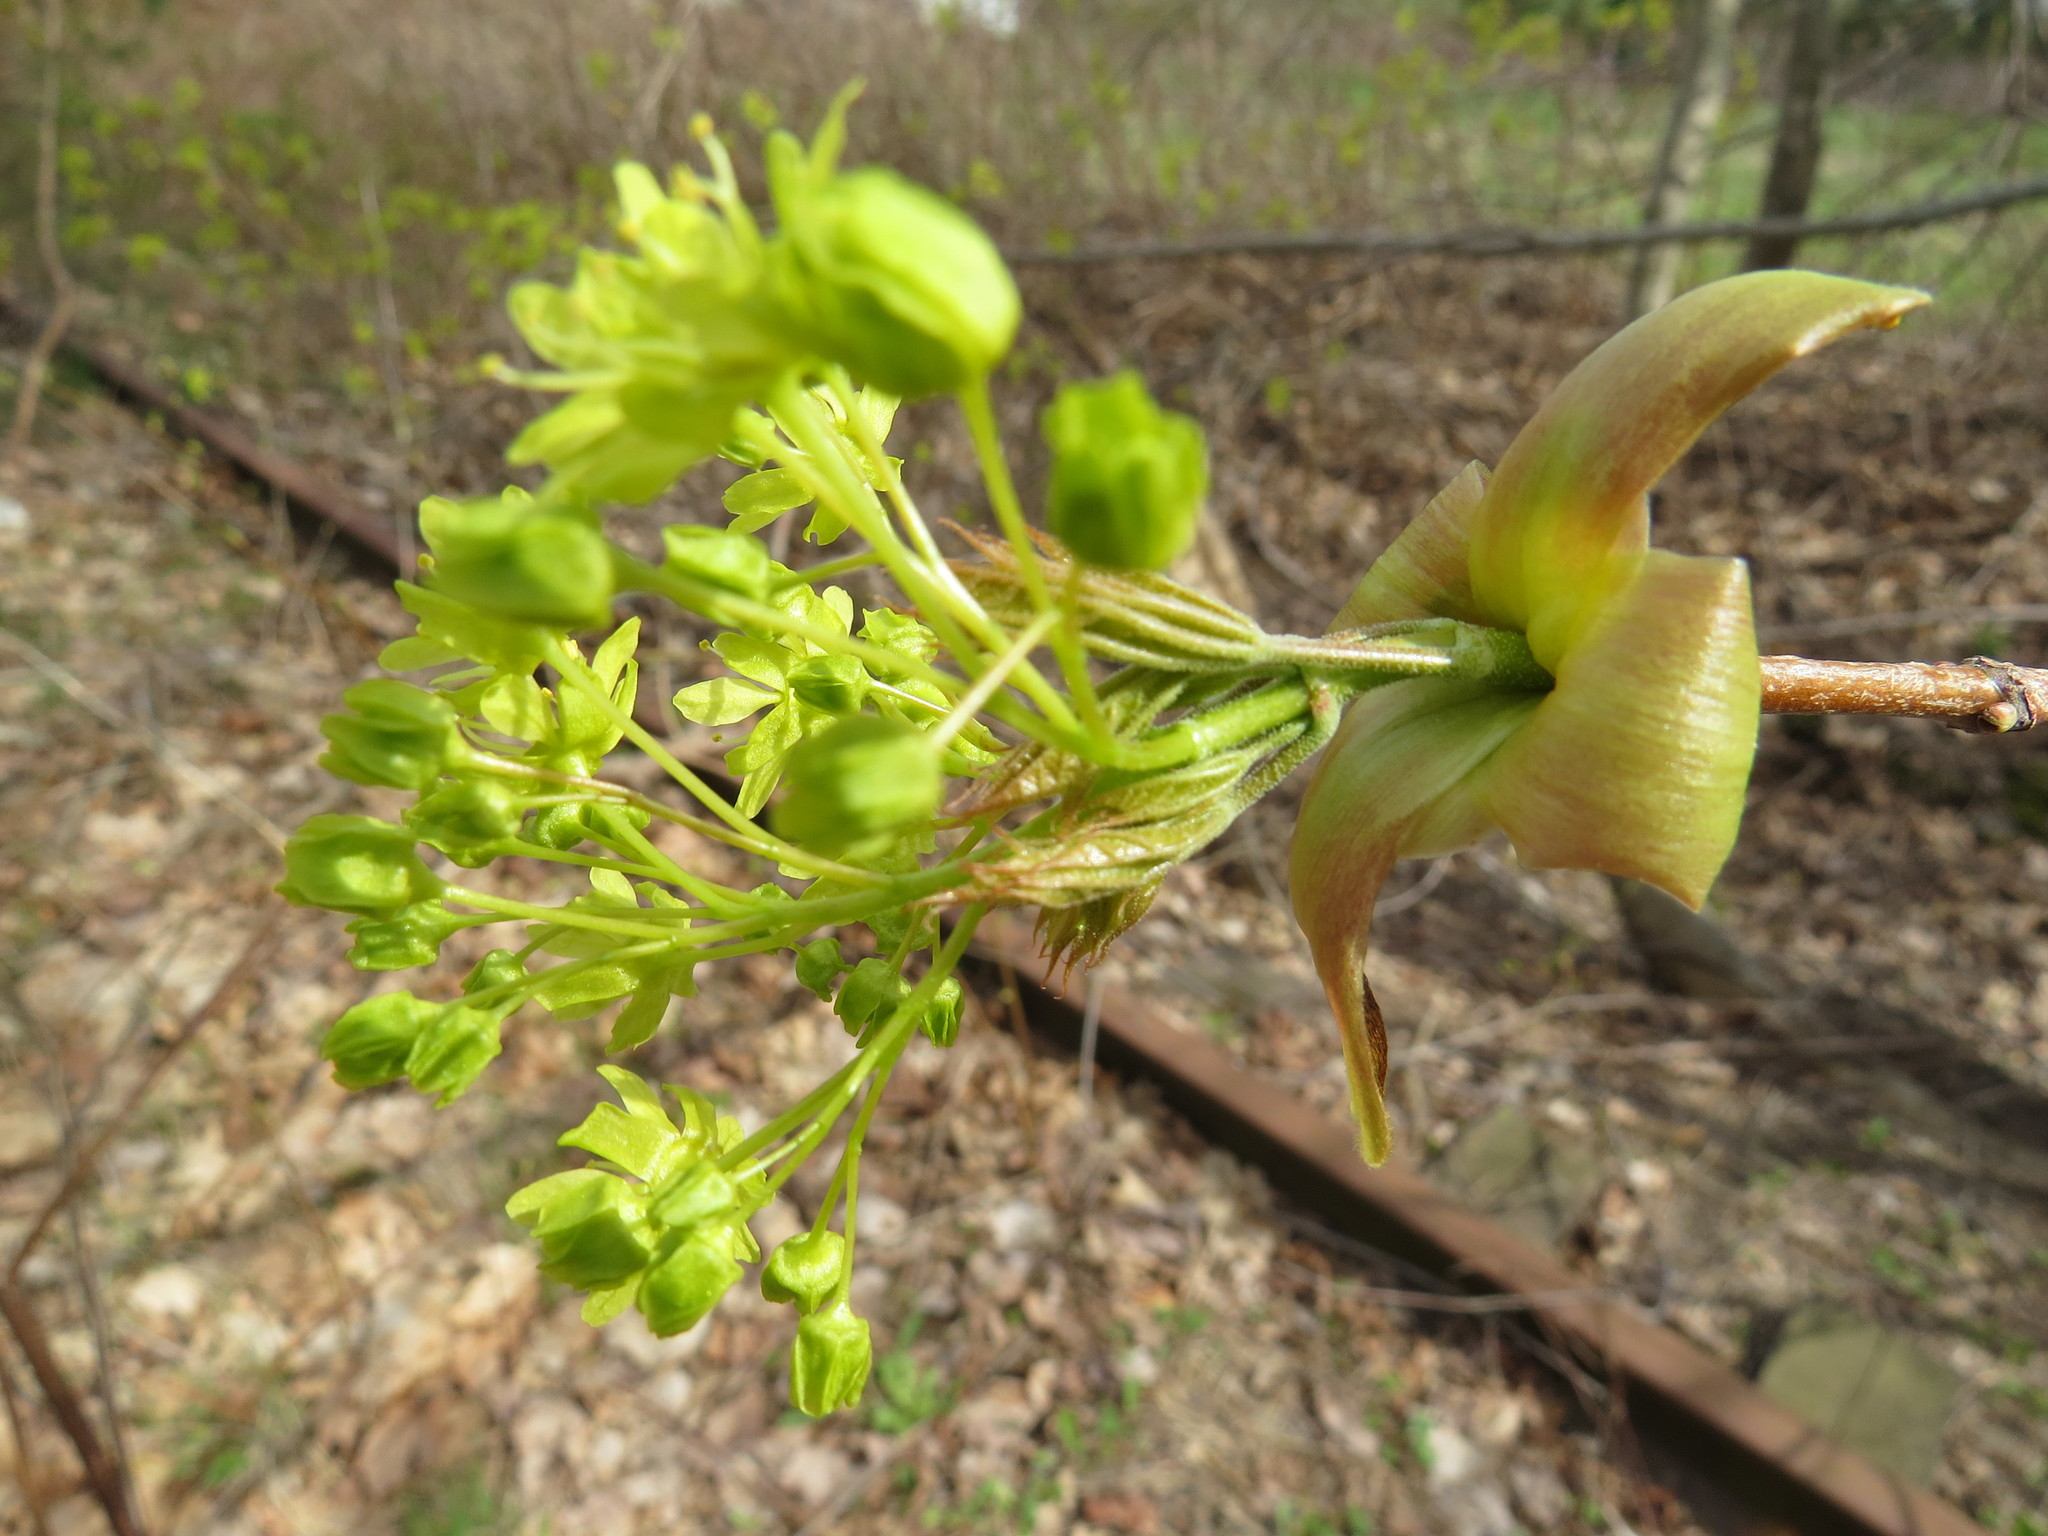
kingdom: Plantae
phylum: Tracheophyta
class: Magnoliopsida
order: Sapindales
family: Sapindaceae
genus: Acer
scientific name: Acer platanoides
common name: Norway maple
